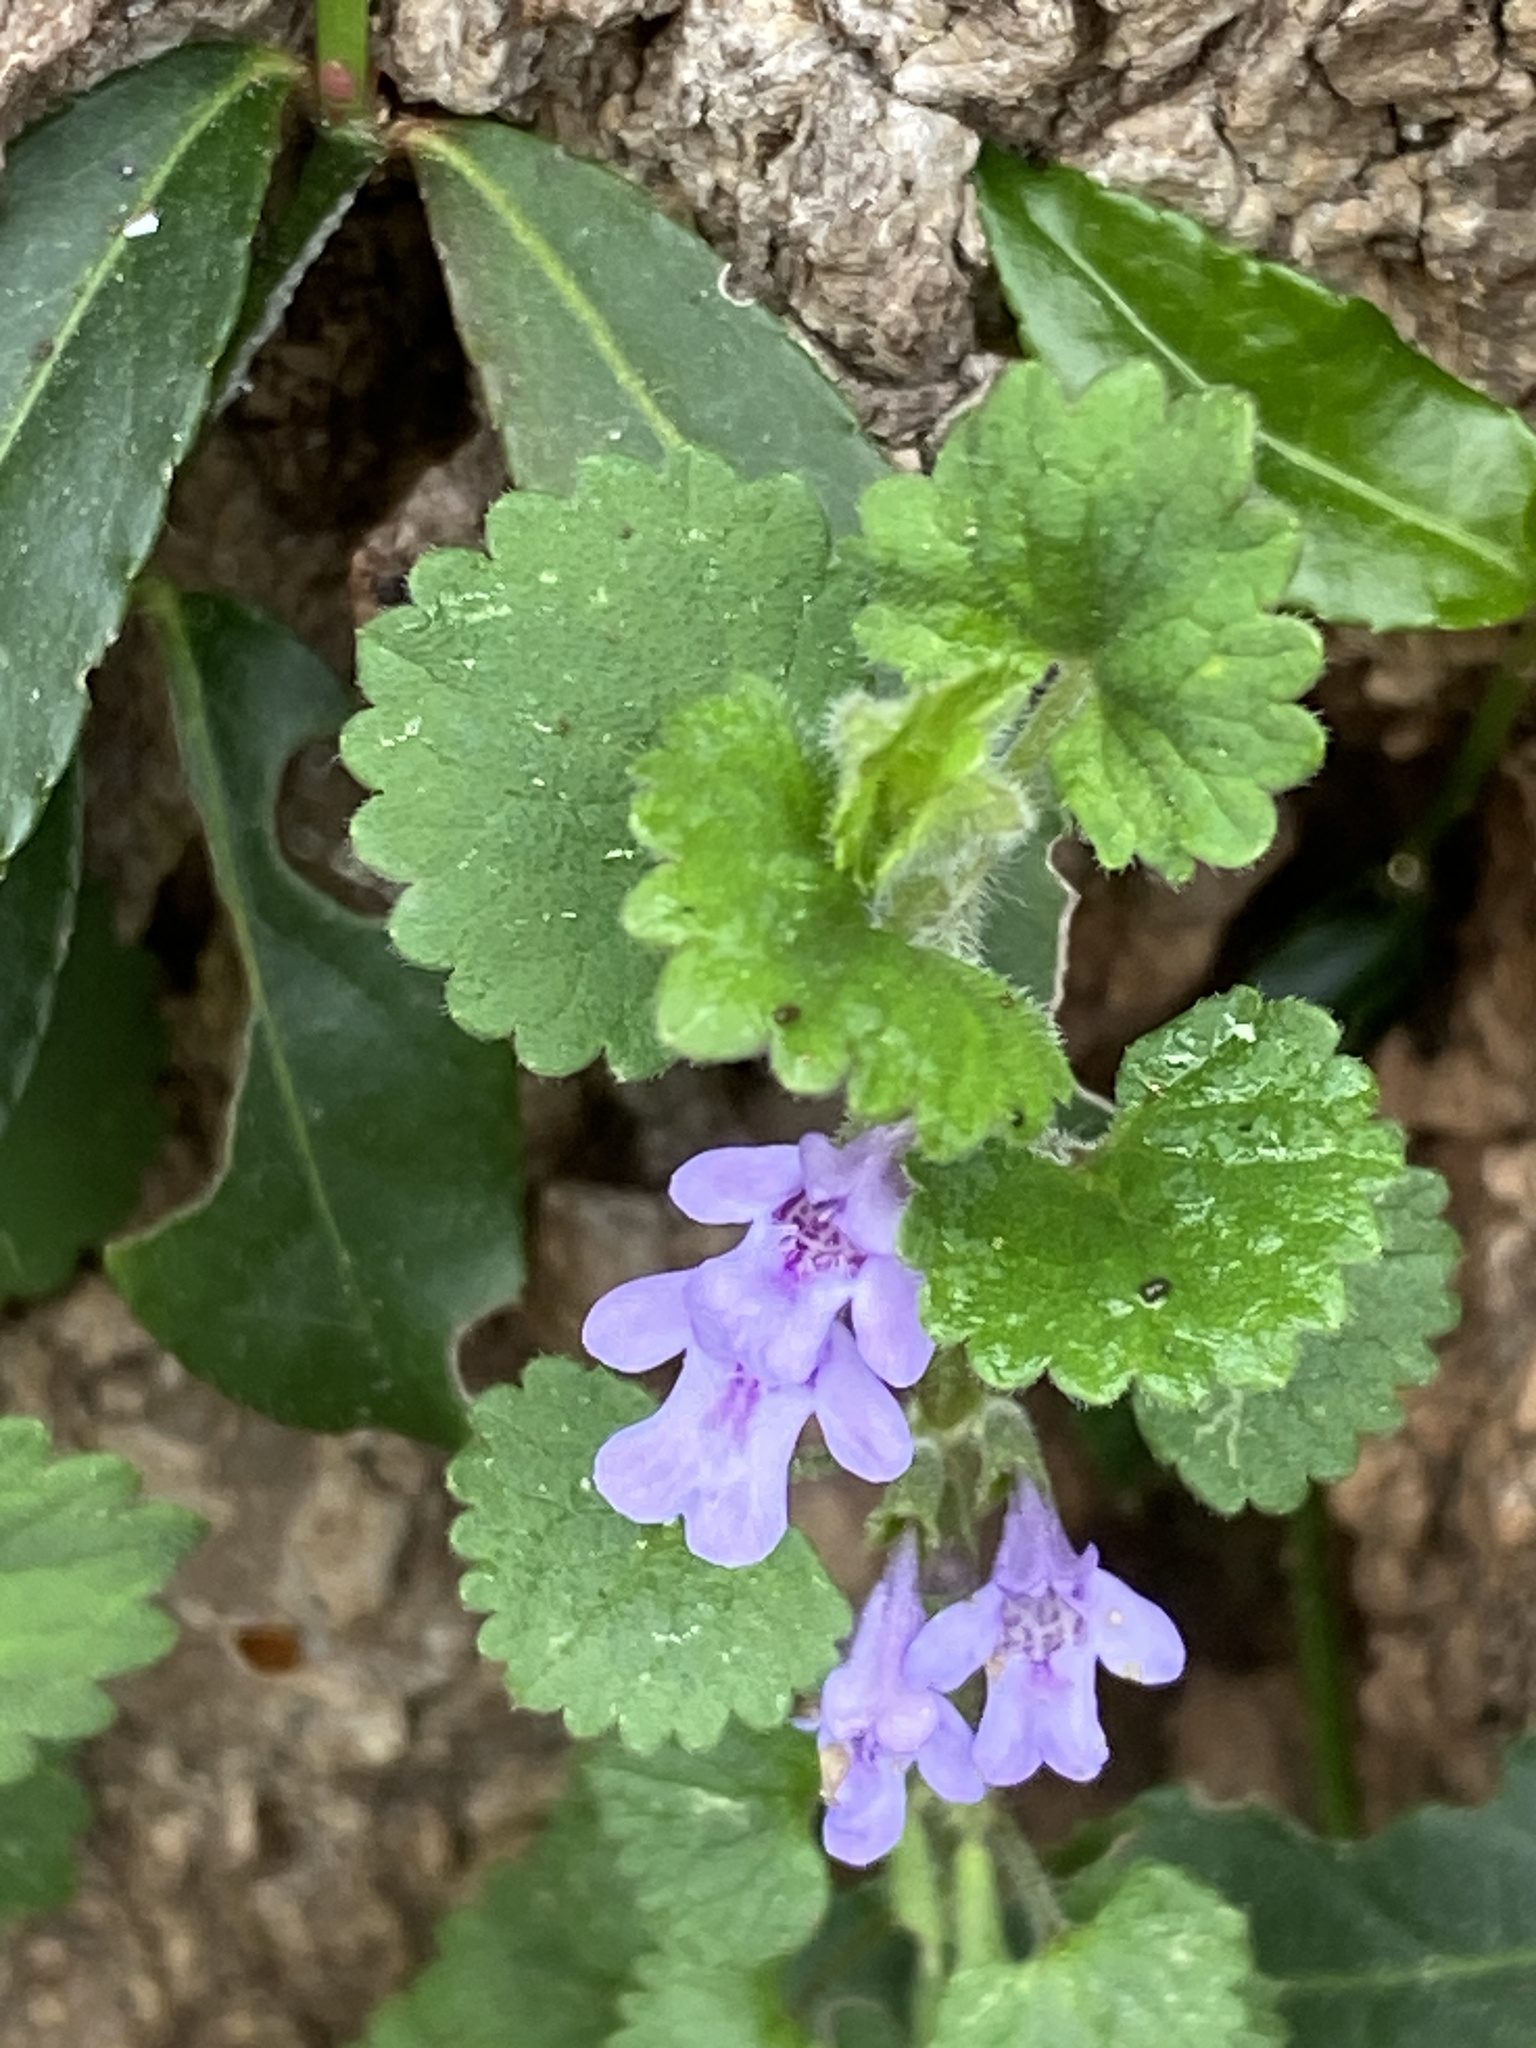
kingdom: Plantae
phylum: Tracheophyta
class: Magnoliopsida
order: Lamiales
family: Lamiaceae
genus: Glechoma
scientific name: Glechoma hederacea
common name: Ground ivy
